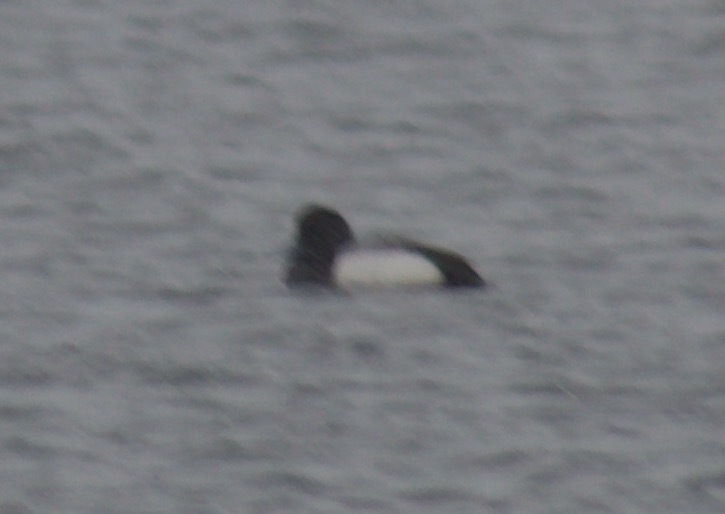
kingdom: Animalia
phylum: Chordata
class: Aves
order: Anseriformes
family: Anatidae
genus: Aythya
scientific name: Aythya marila
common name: Greater scaup
